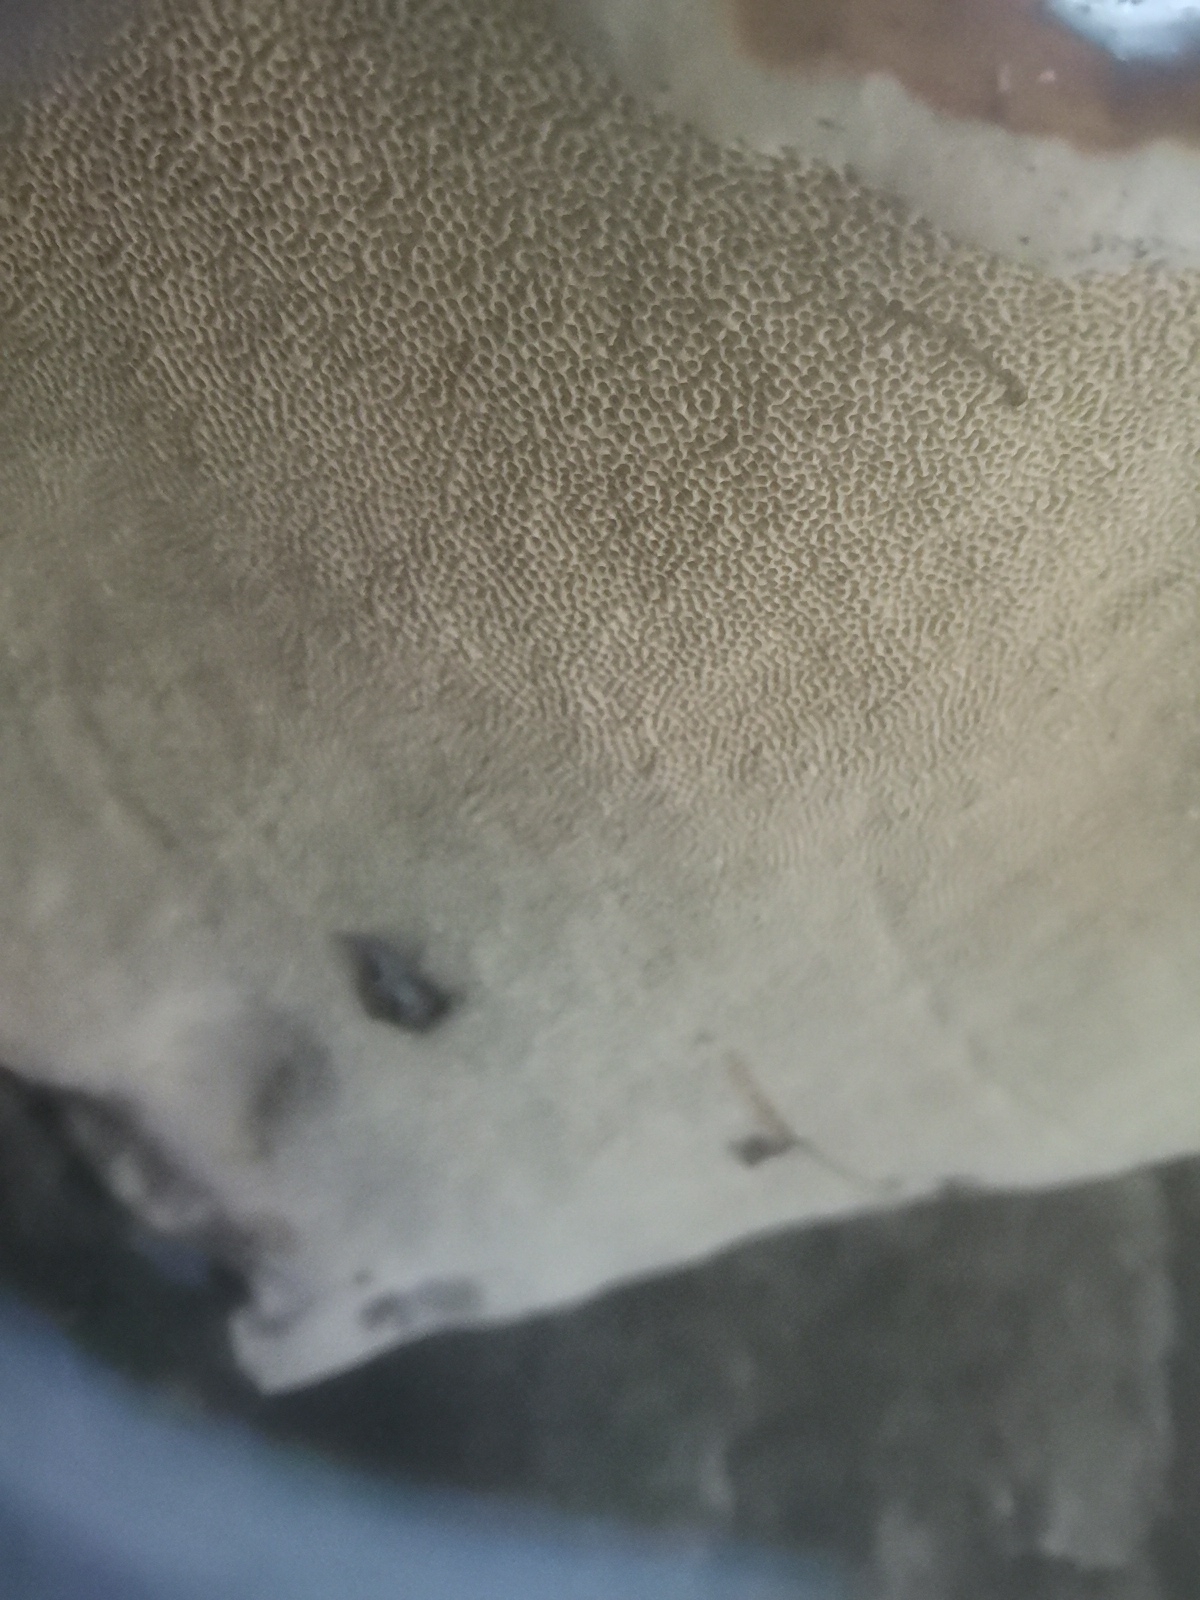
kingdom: Fungi
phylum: Basidiomycota
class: Agaricomycetes
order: Polyporales
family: Fomitopsidaceae
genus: Fomitopsis
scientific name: Fomitopsis pinicola
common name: Red-belted bracket
